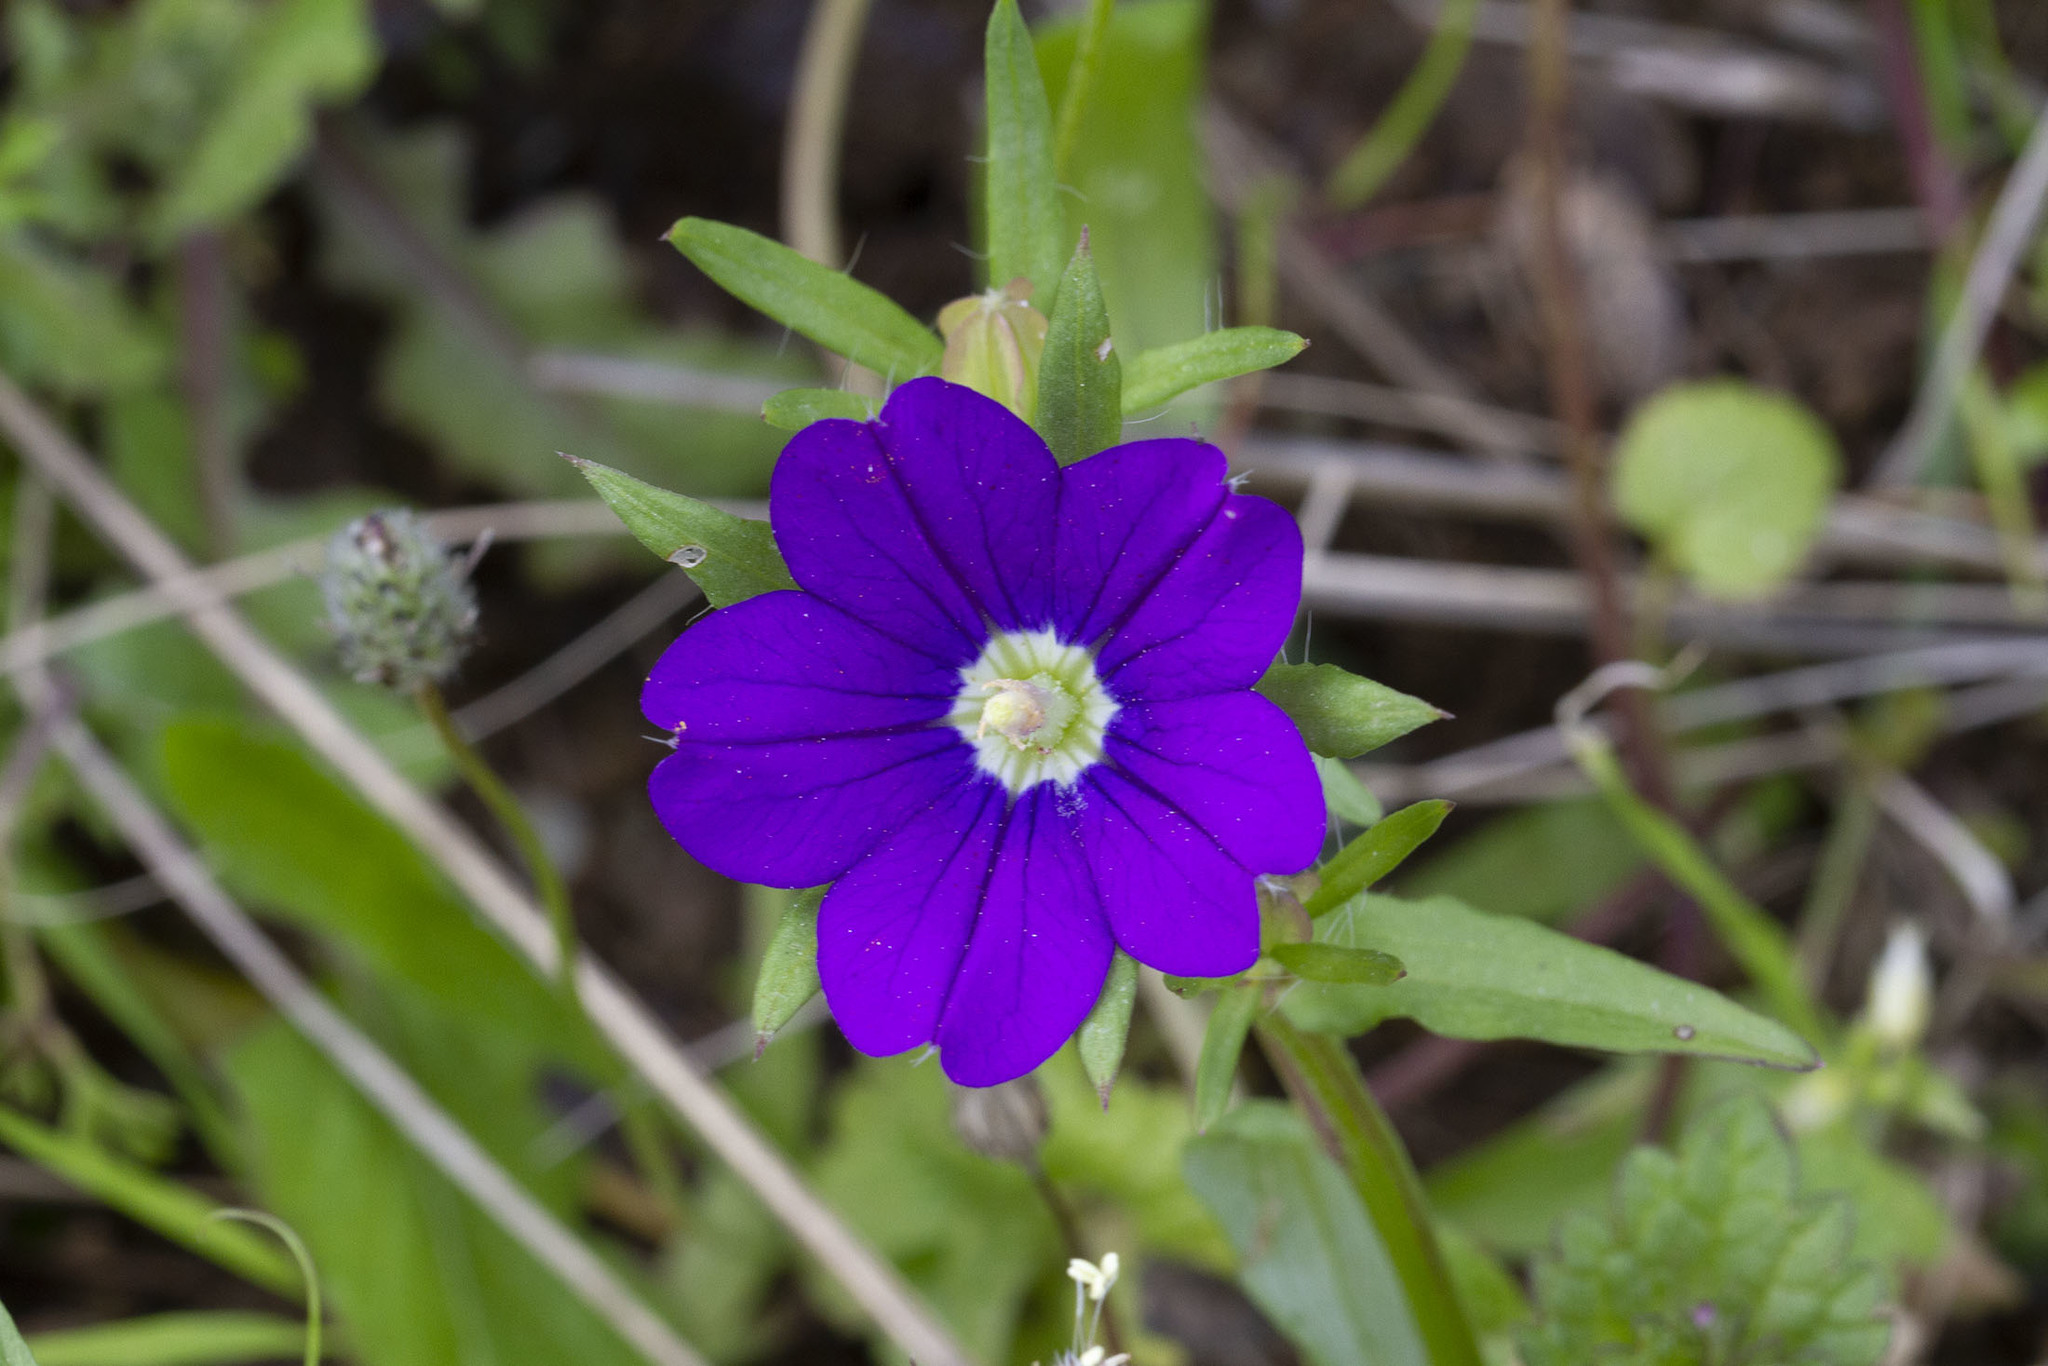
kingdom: Plantae
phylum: Tracheophyta
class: Magnoliopsida
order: Asterales
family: Campanulaceae
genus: Legousia
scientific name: Legousia speculum-veneris
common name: Large venus's-looking-glass
